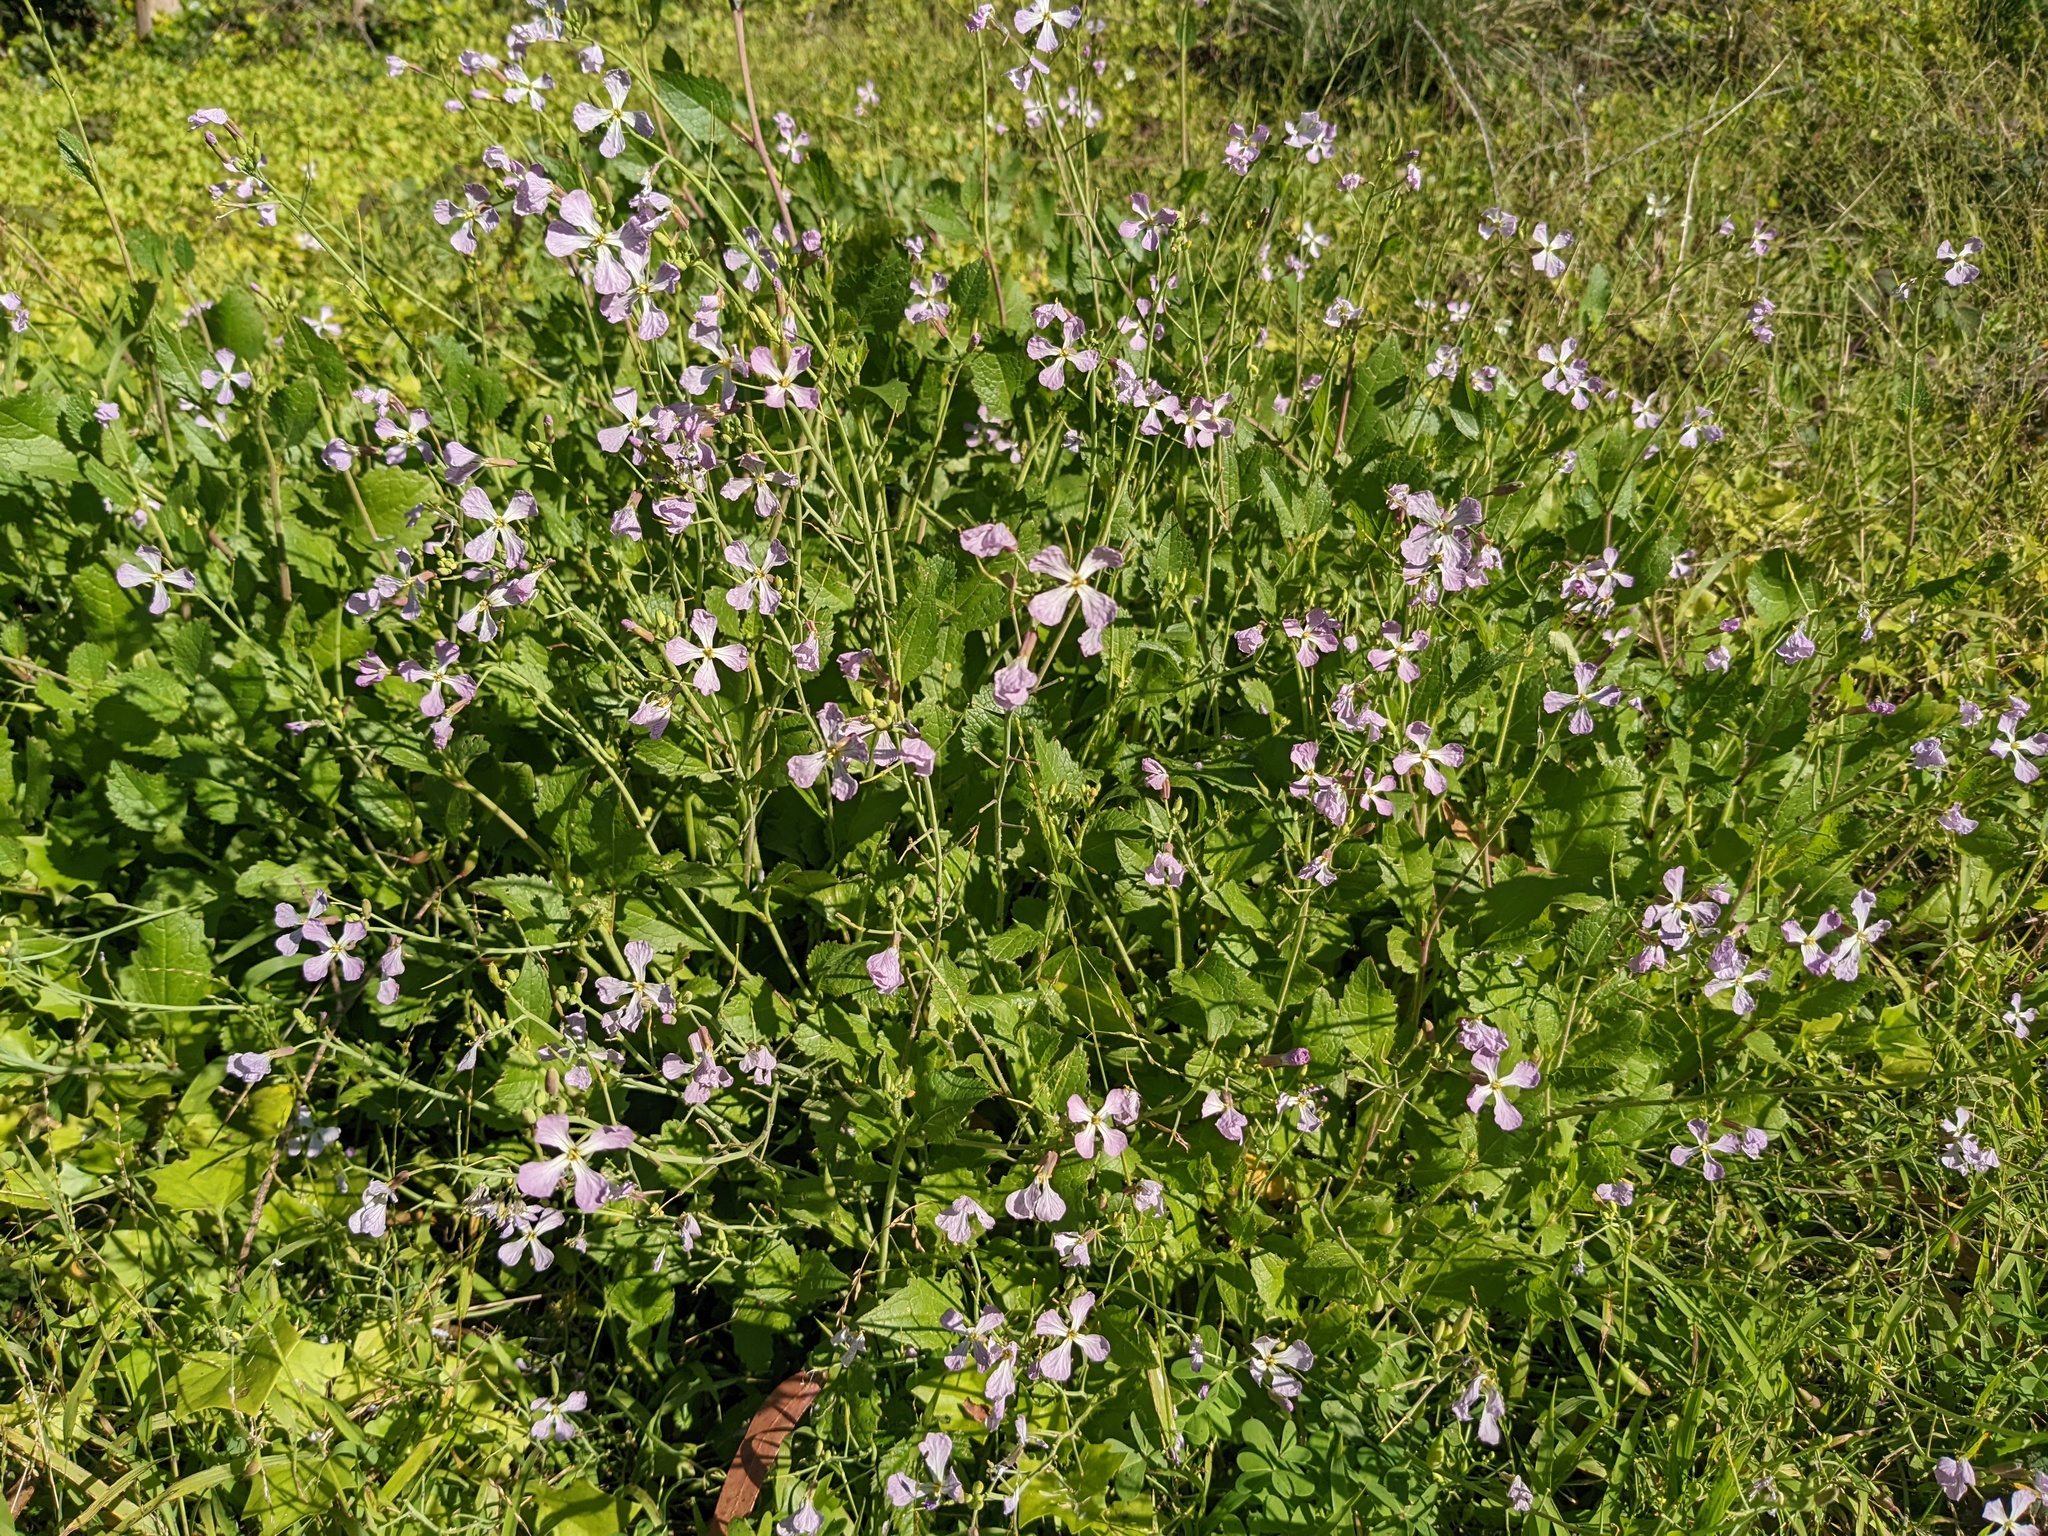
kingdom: Plantae
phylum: Tracheophyta
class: Magnoliopsida
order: Brassicales
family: Brassicaceae
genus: Raphanus
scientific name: Raphanus sativus
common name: Cultivated radish
